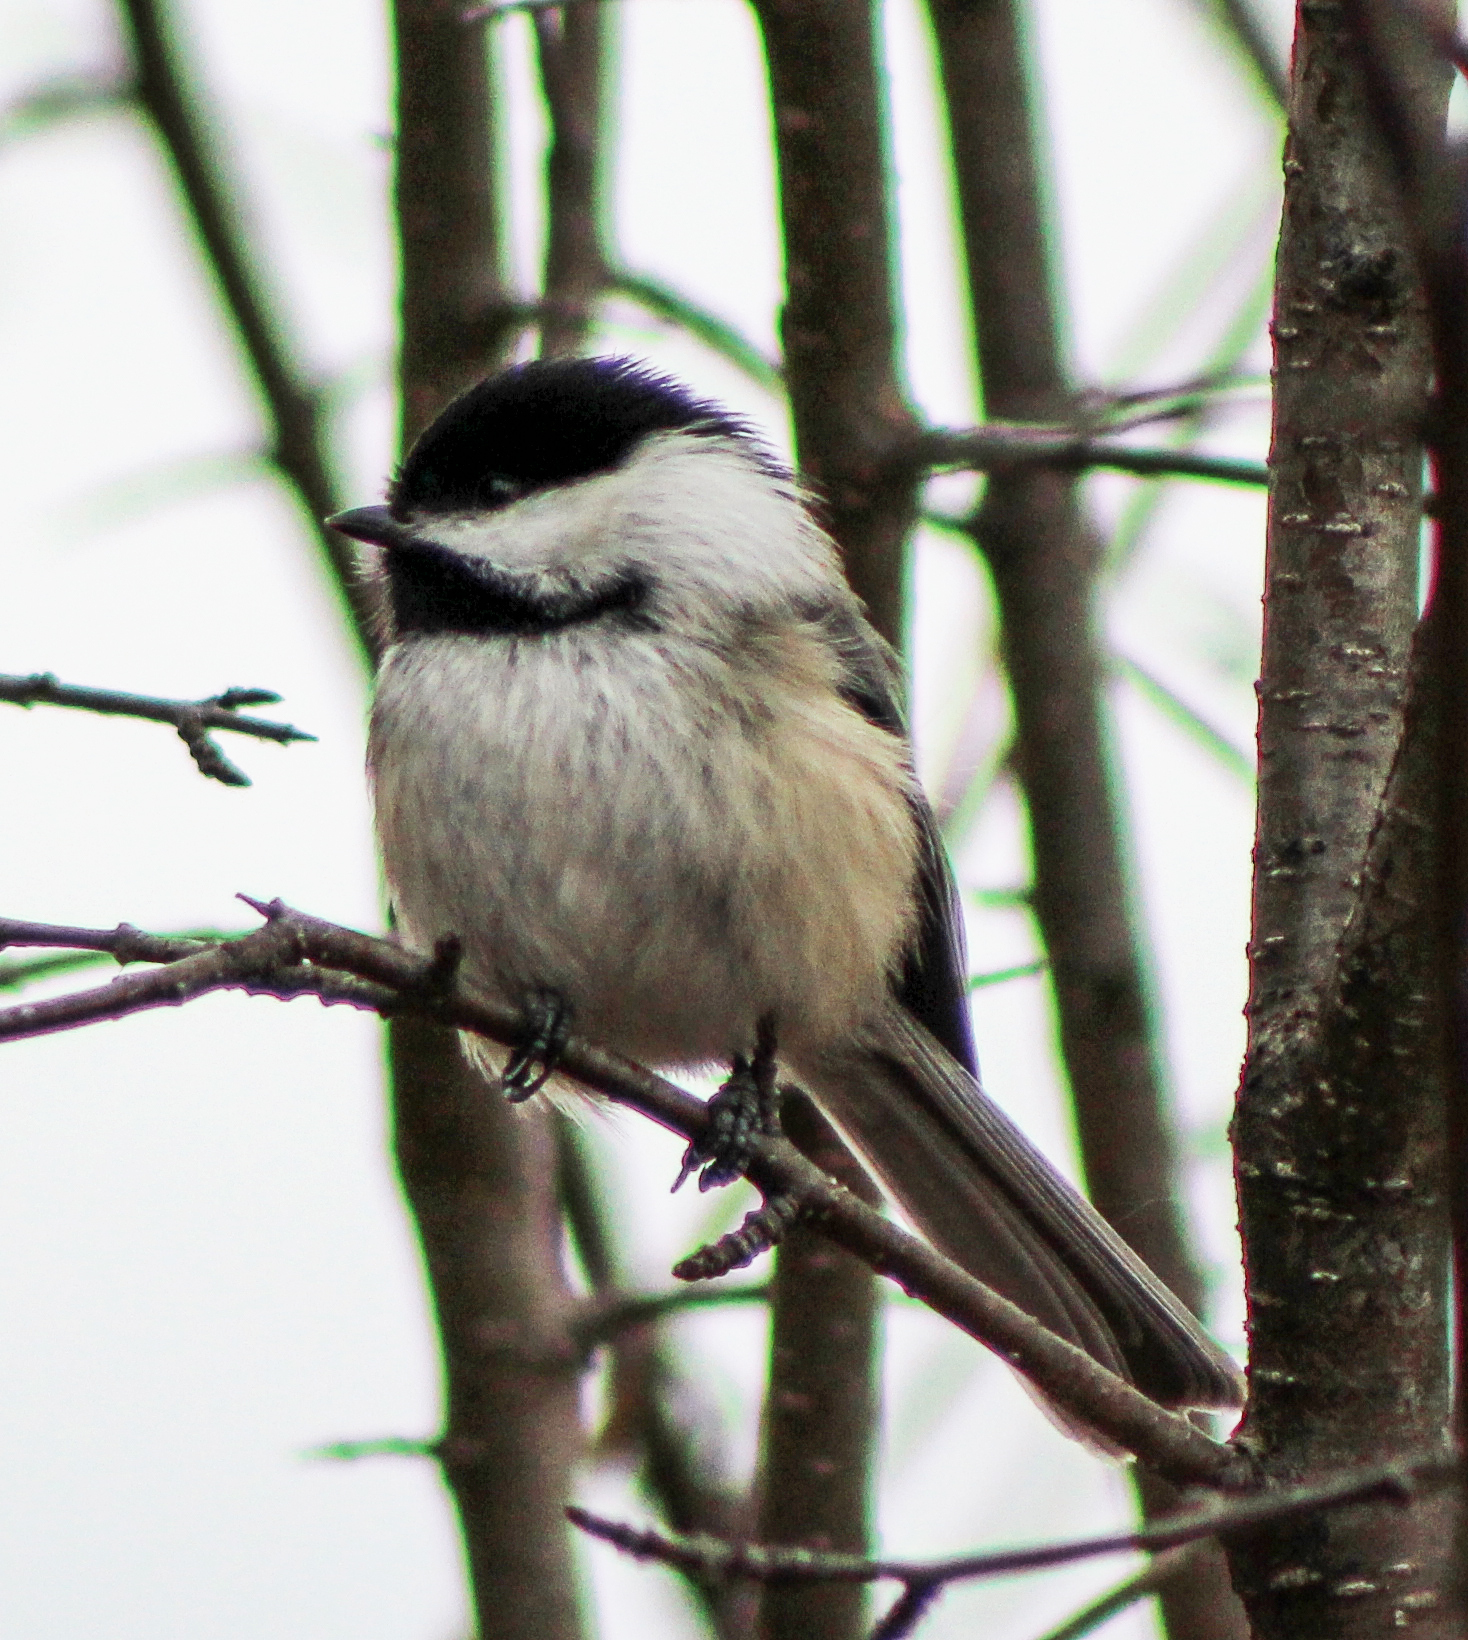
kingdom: Animalia
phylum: Chordata
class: Aves
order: Passeriformes
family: Paridae
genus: Poecile
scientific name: Poecile atricapillus
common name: Black-capped chickadee
